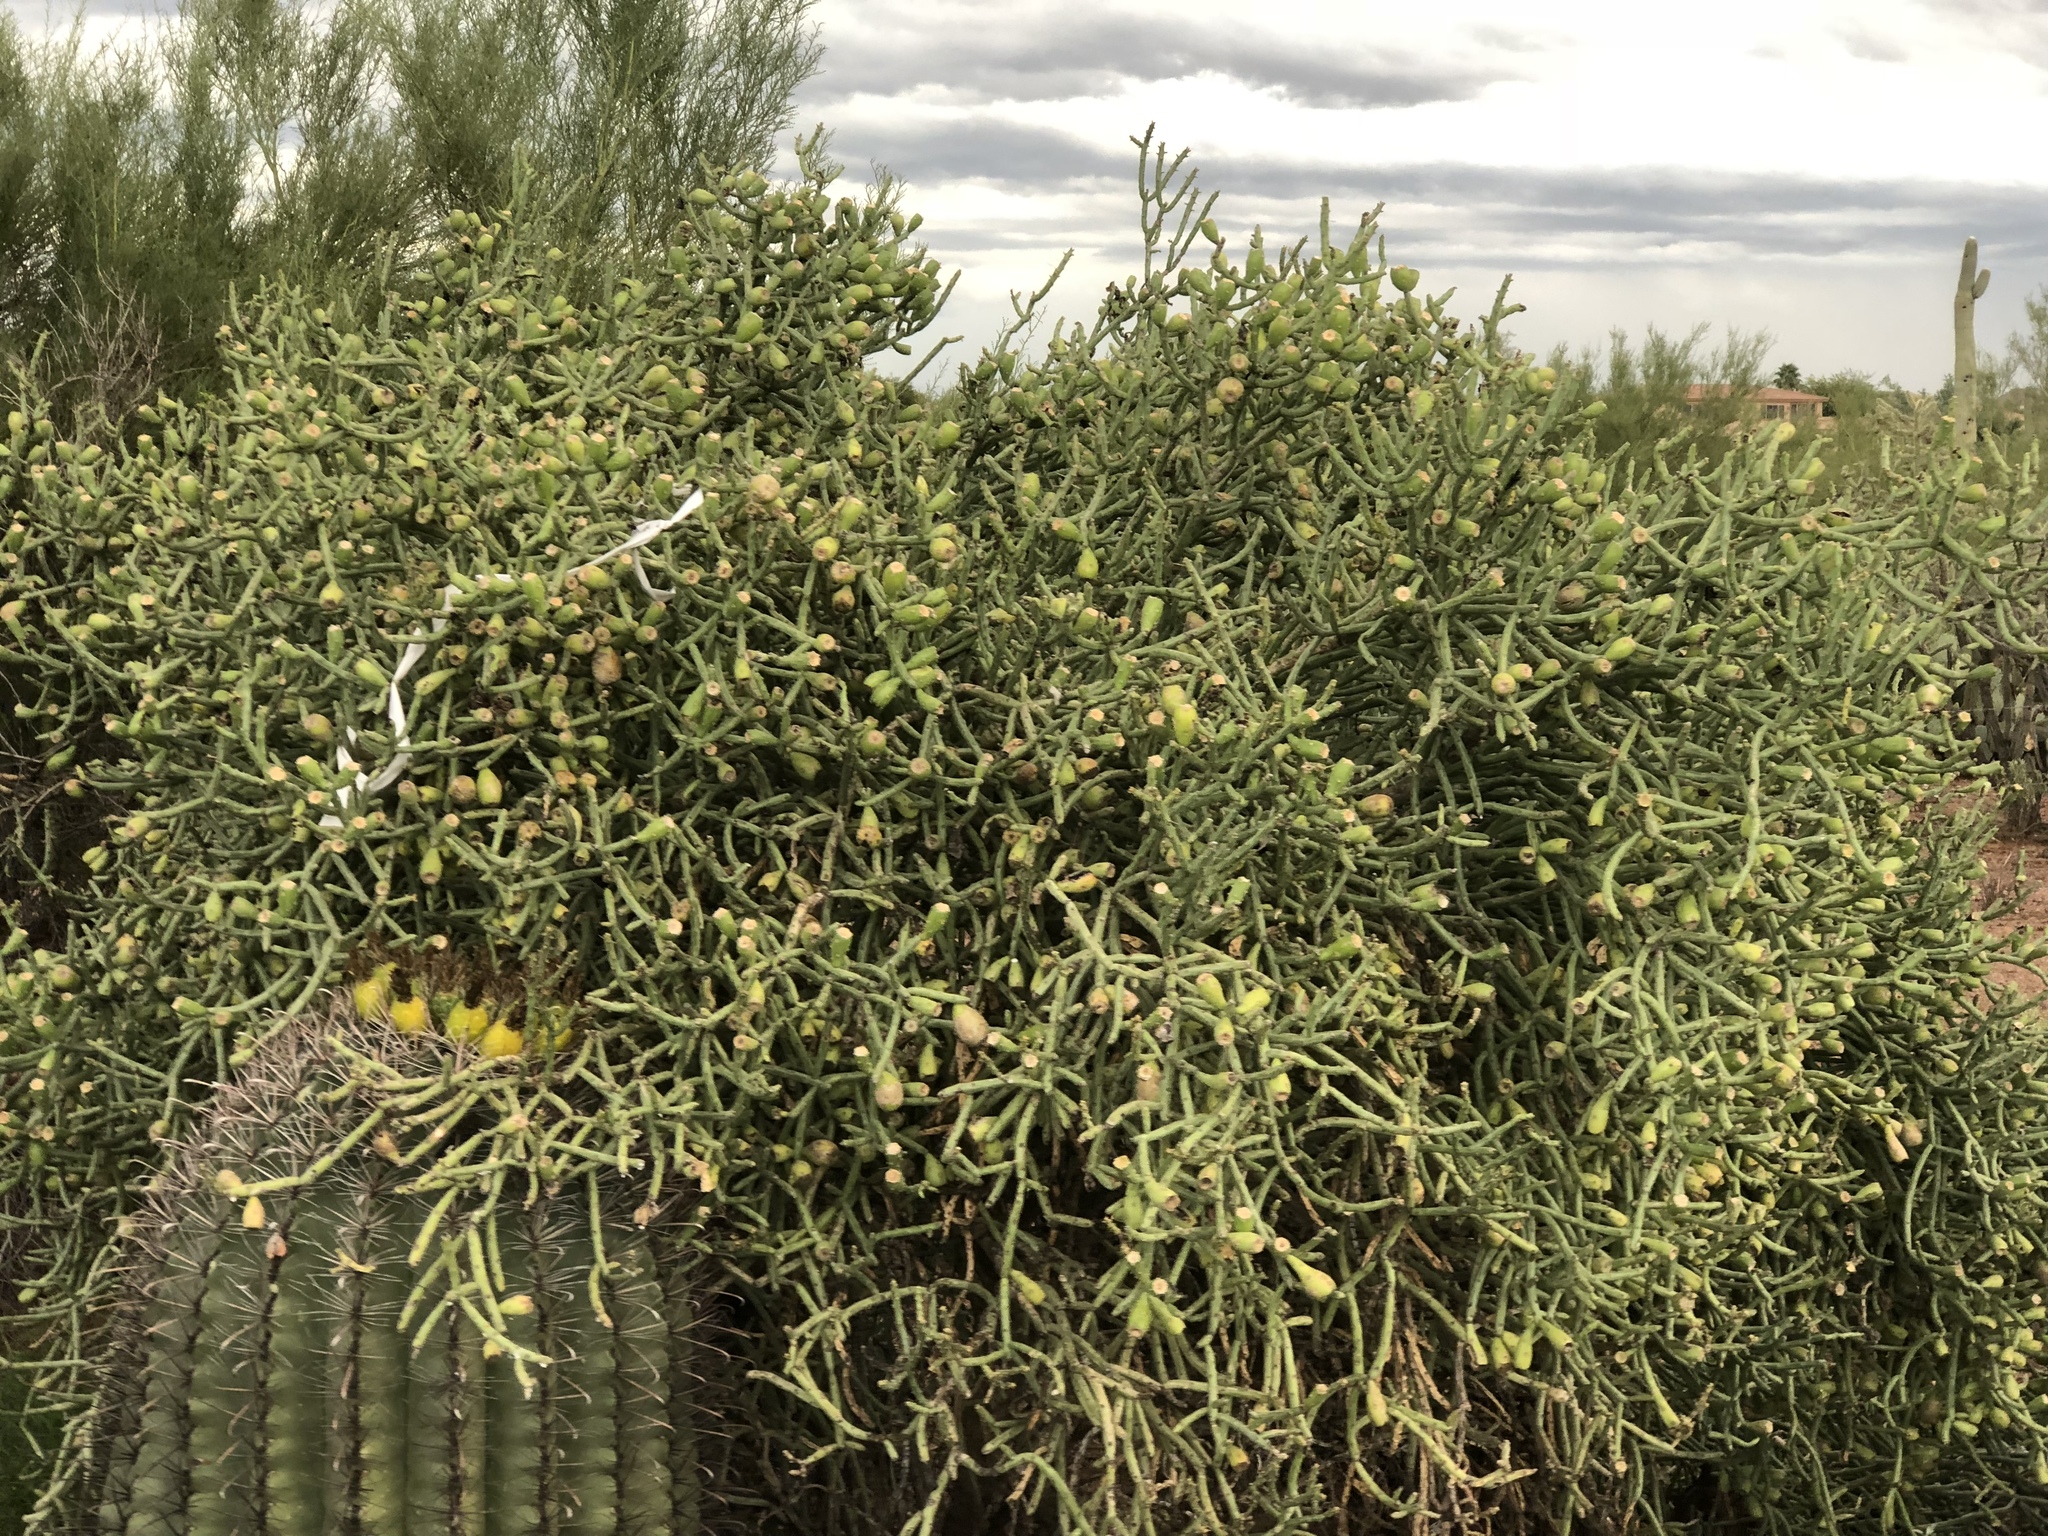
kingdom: Plantae
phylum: Tracheophyta
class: Magnoliopsida
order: Caryophyllales
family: Cactaceae
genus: Cylindropuntia
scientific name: Cylindropuntia arbuscula
